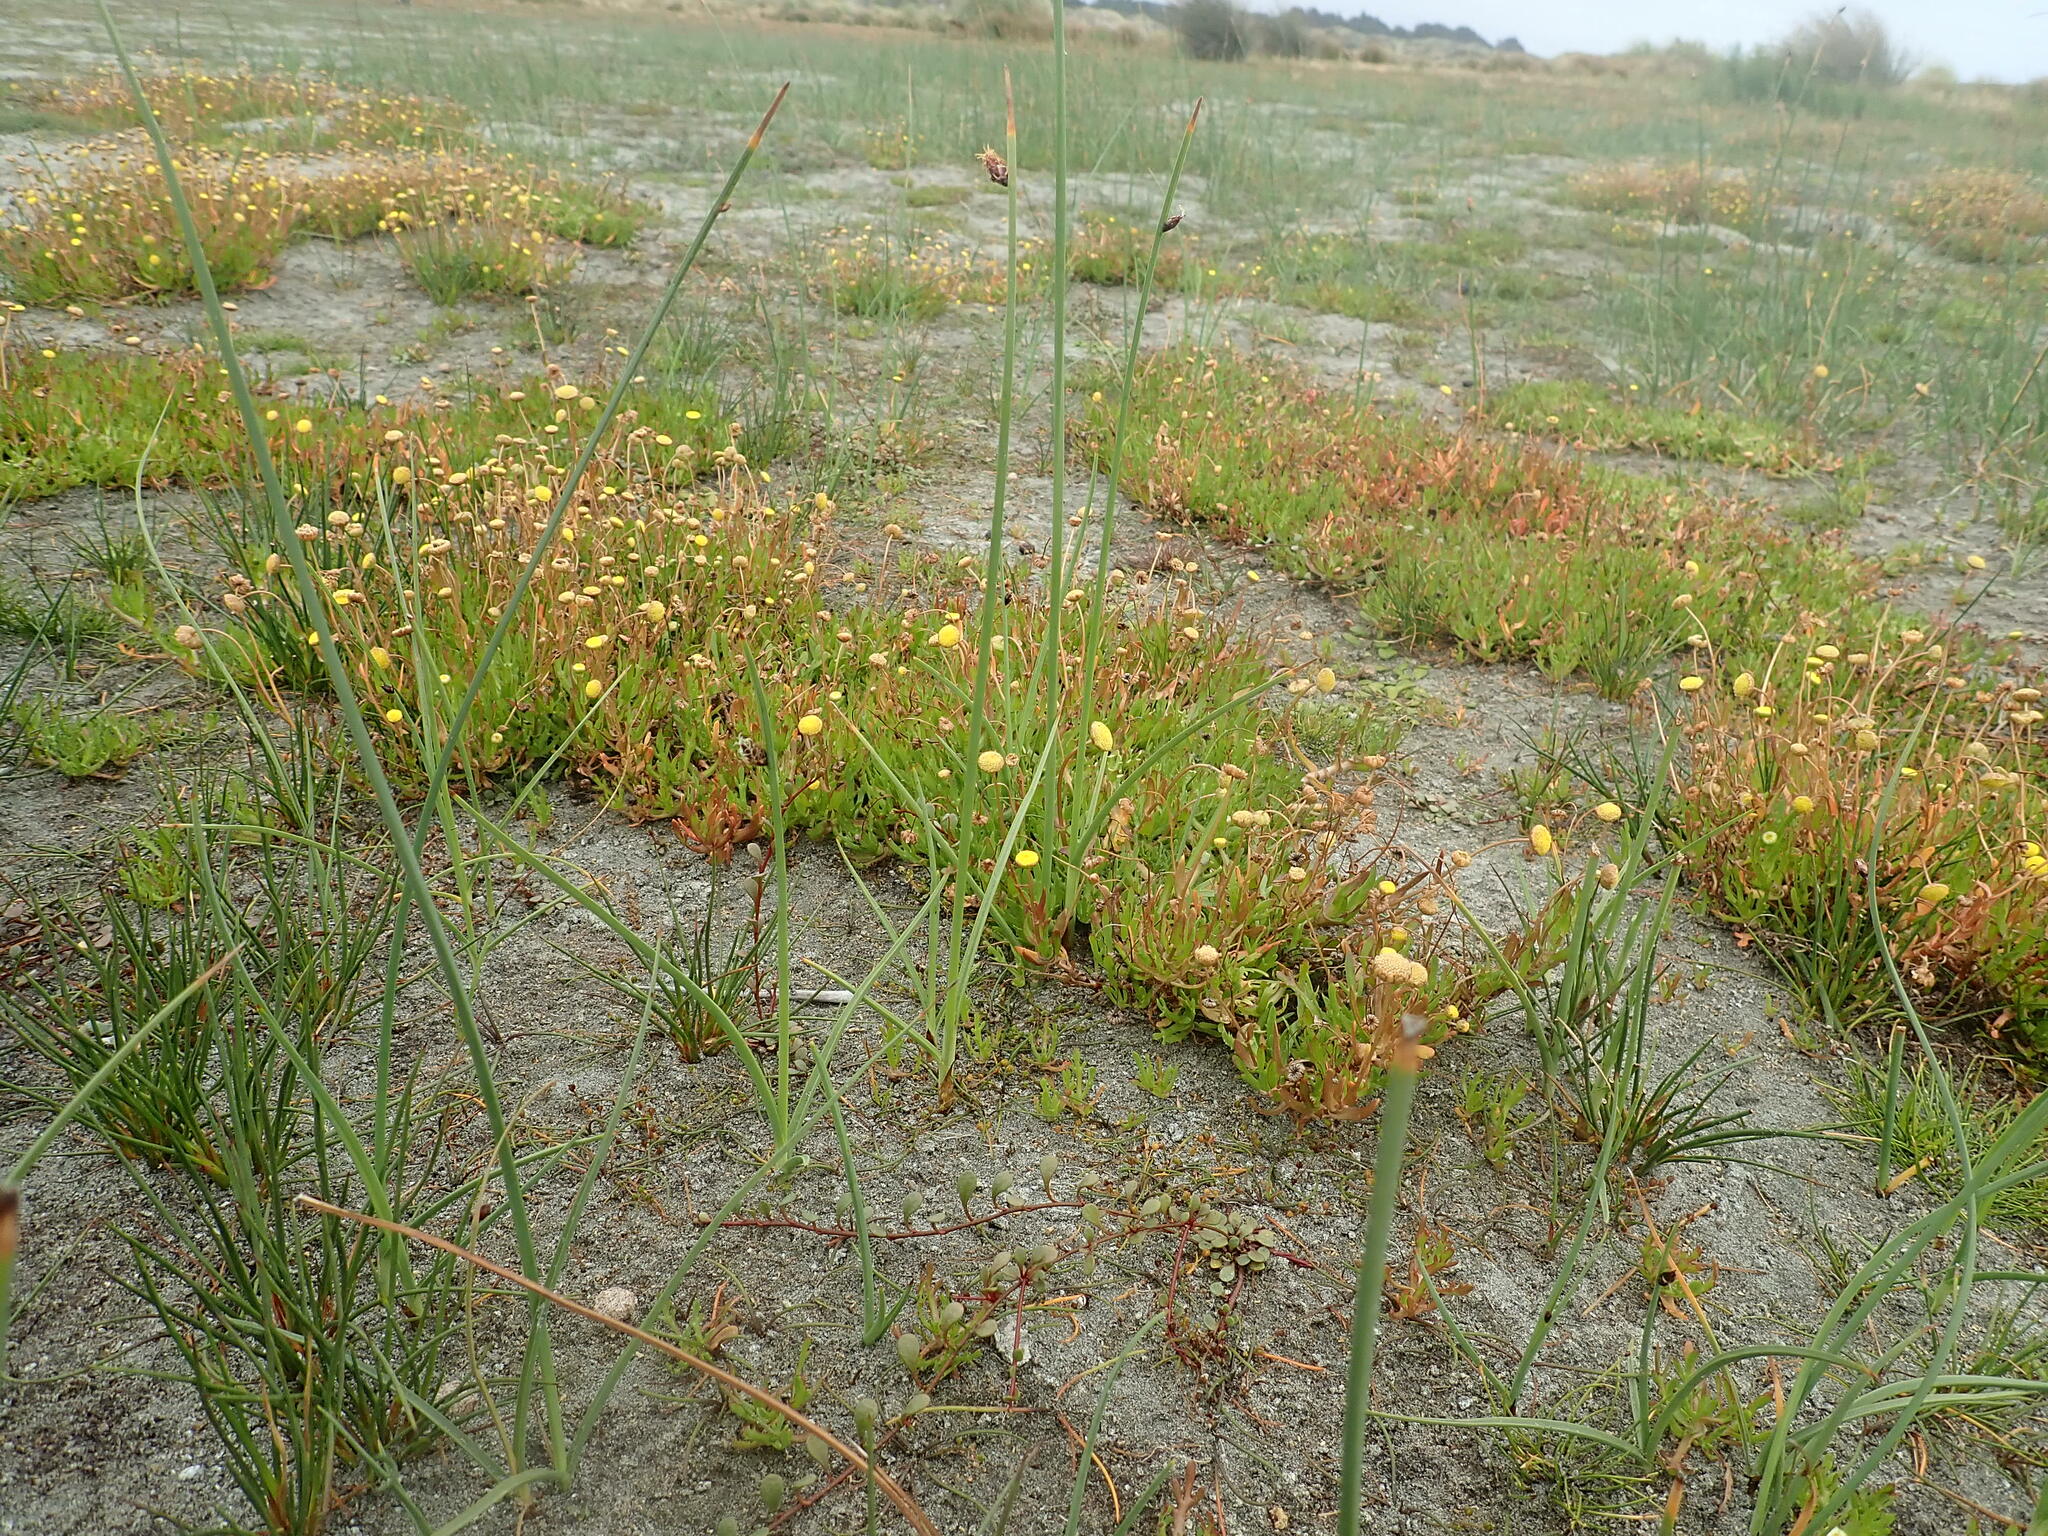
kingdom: Plantae
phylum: Tracheophyta
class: Magnoliopsida
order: Asterales
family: Asteraceae
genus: Cotula
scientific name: Cotula coronopifolia
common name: Buttonweed
